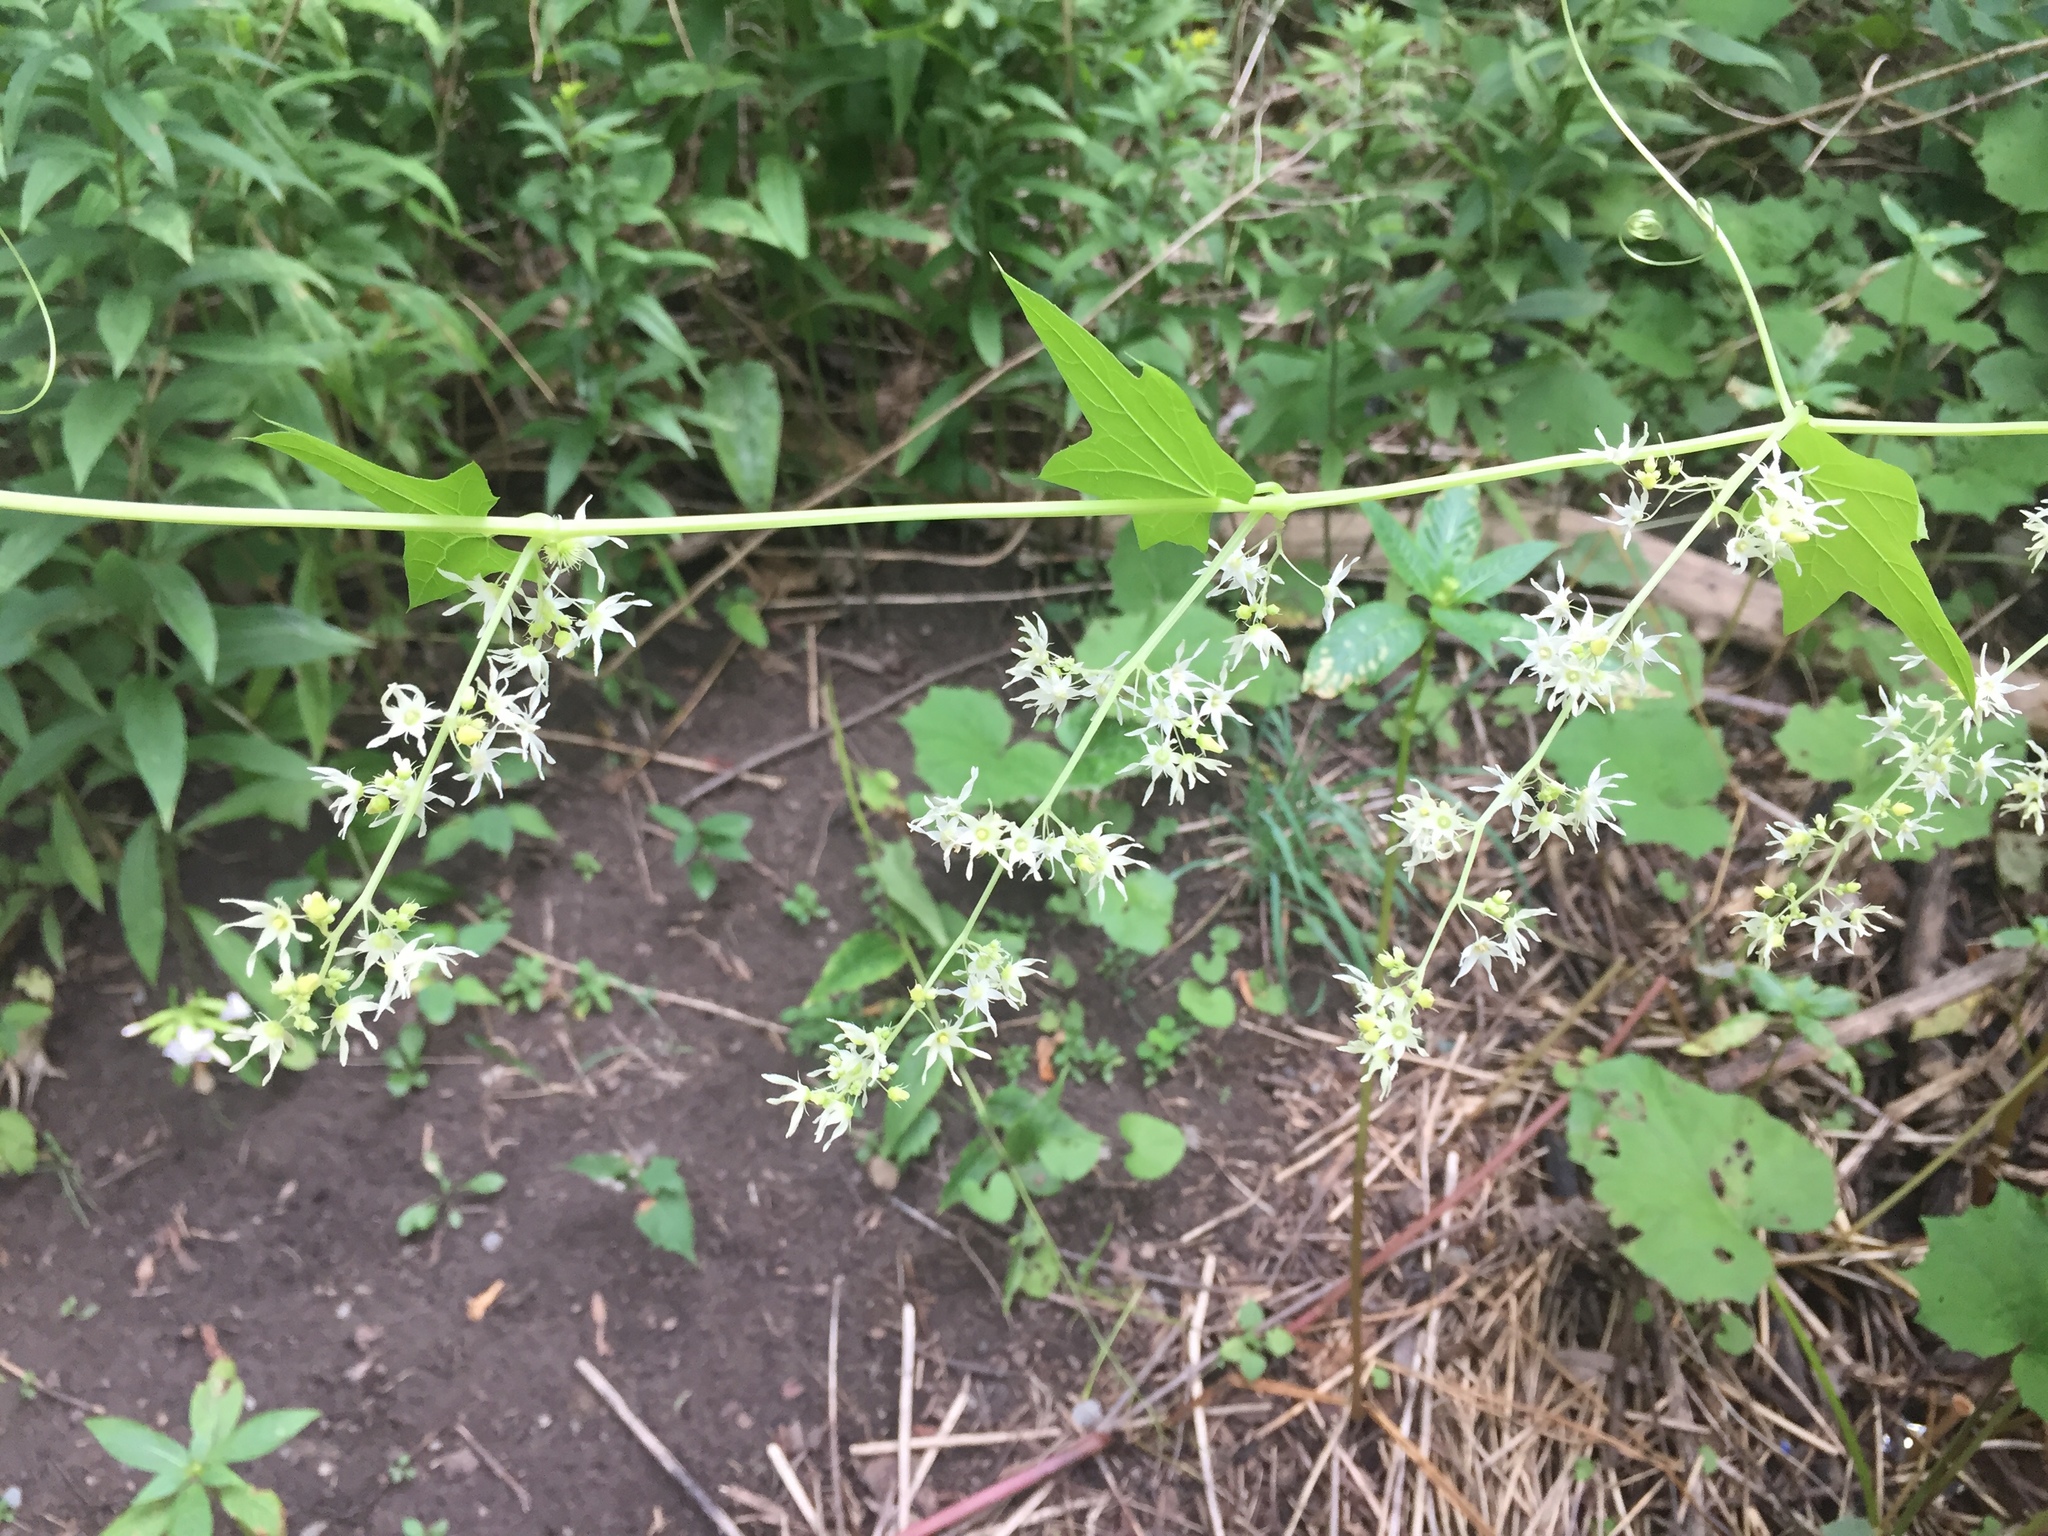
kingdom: Plantae
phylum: Tracheophyta
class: Magnoliopsida
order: Cucurbitales
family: Cucurbitaceae
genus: Echinocystis
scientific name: Echinocystis lobata
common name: Wild cucumber
